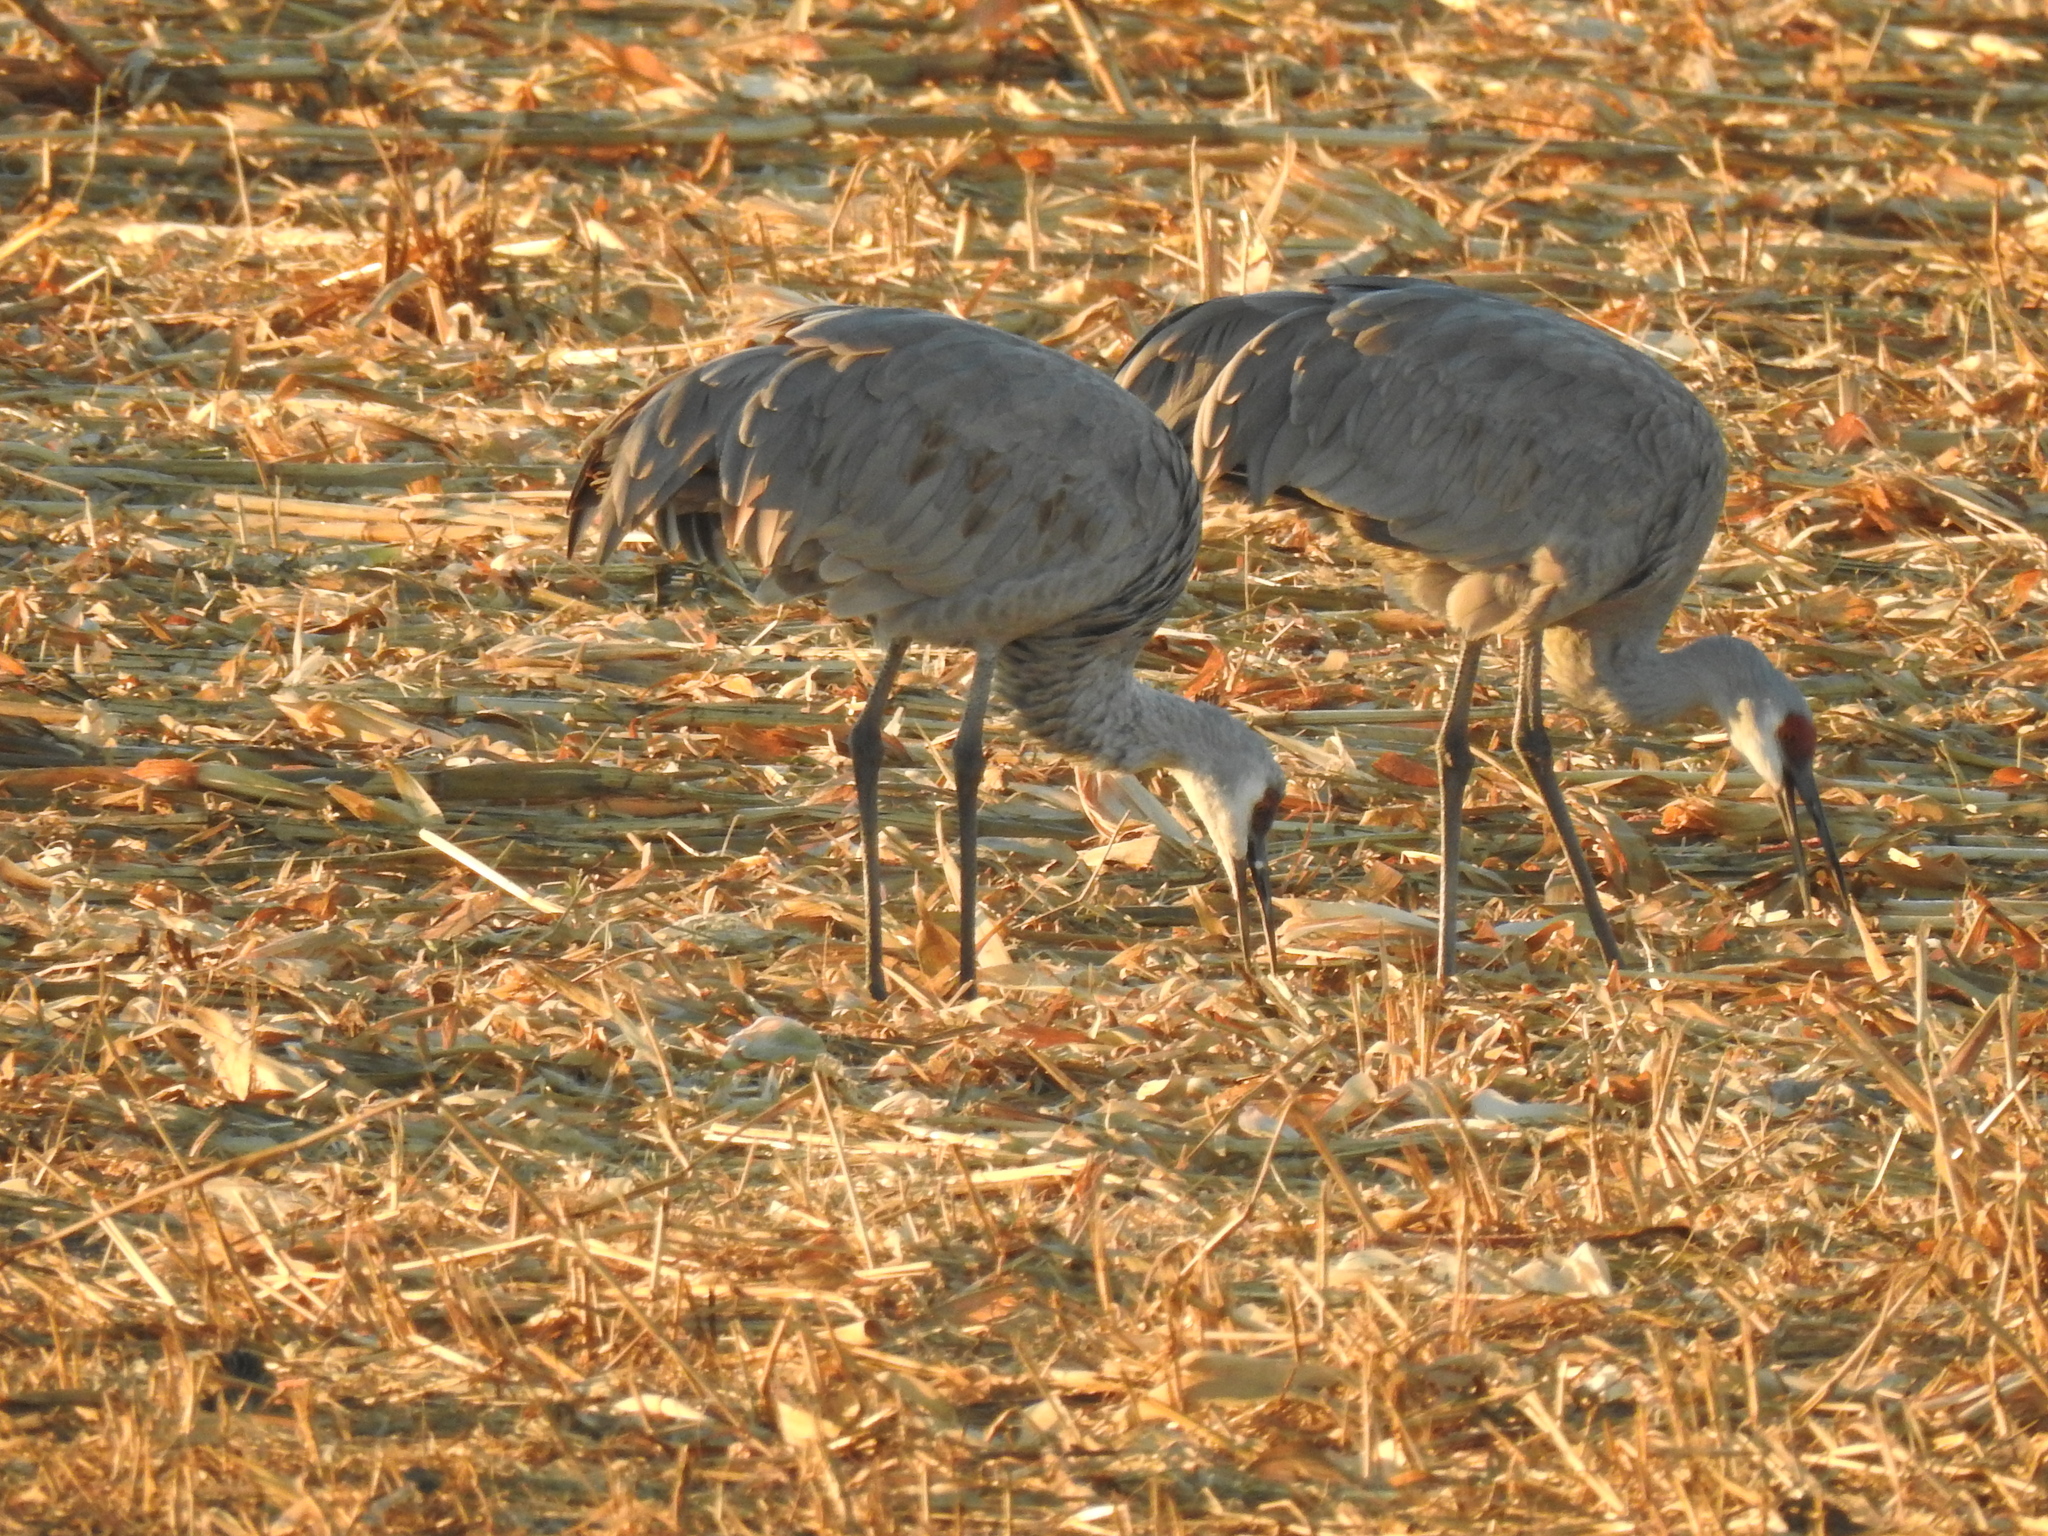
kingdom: Animalia
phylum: Chordata
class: Aves
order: Gruiformes
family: Gruidae
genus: Grus
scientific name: Grus canadensis
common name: Sandhill crane
